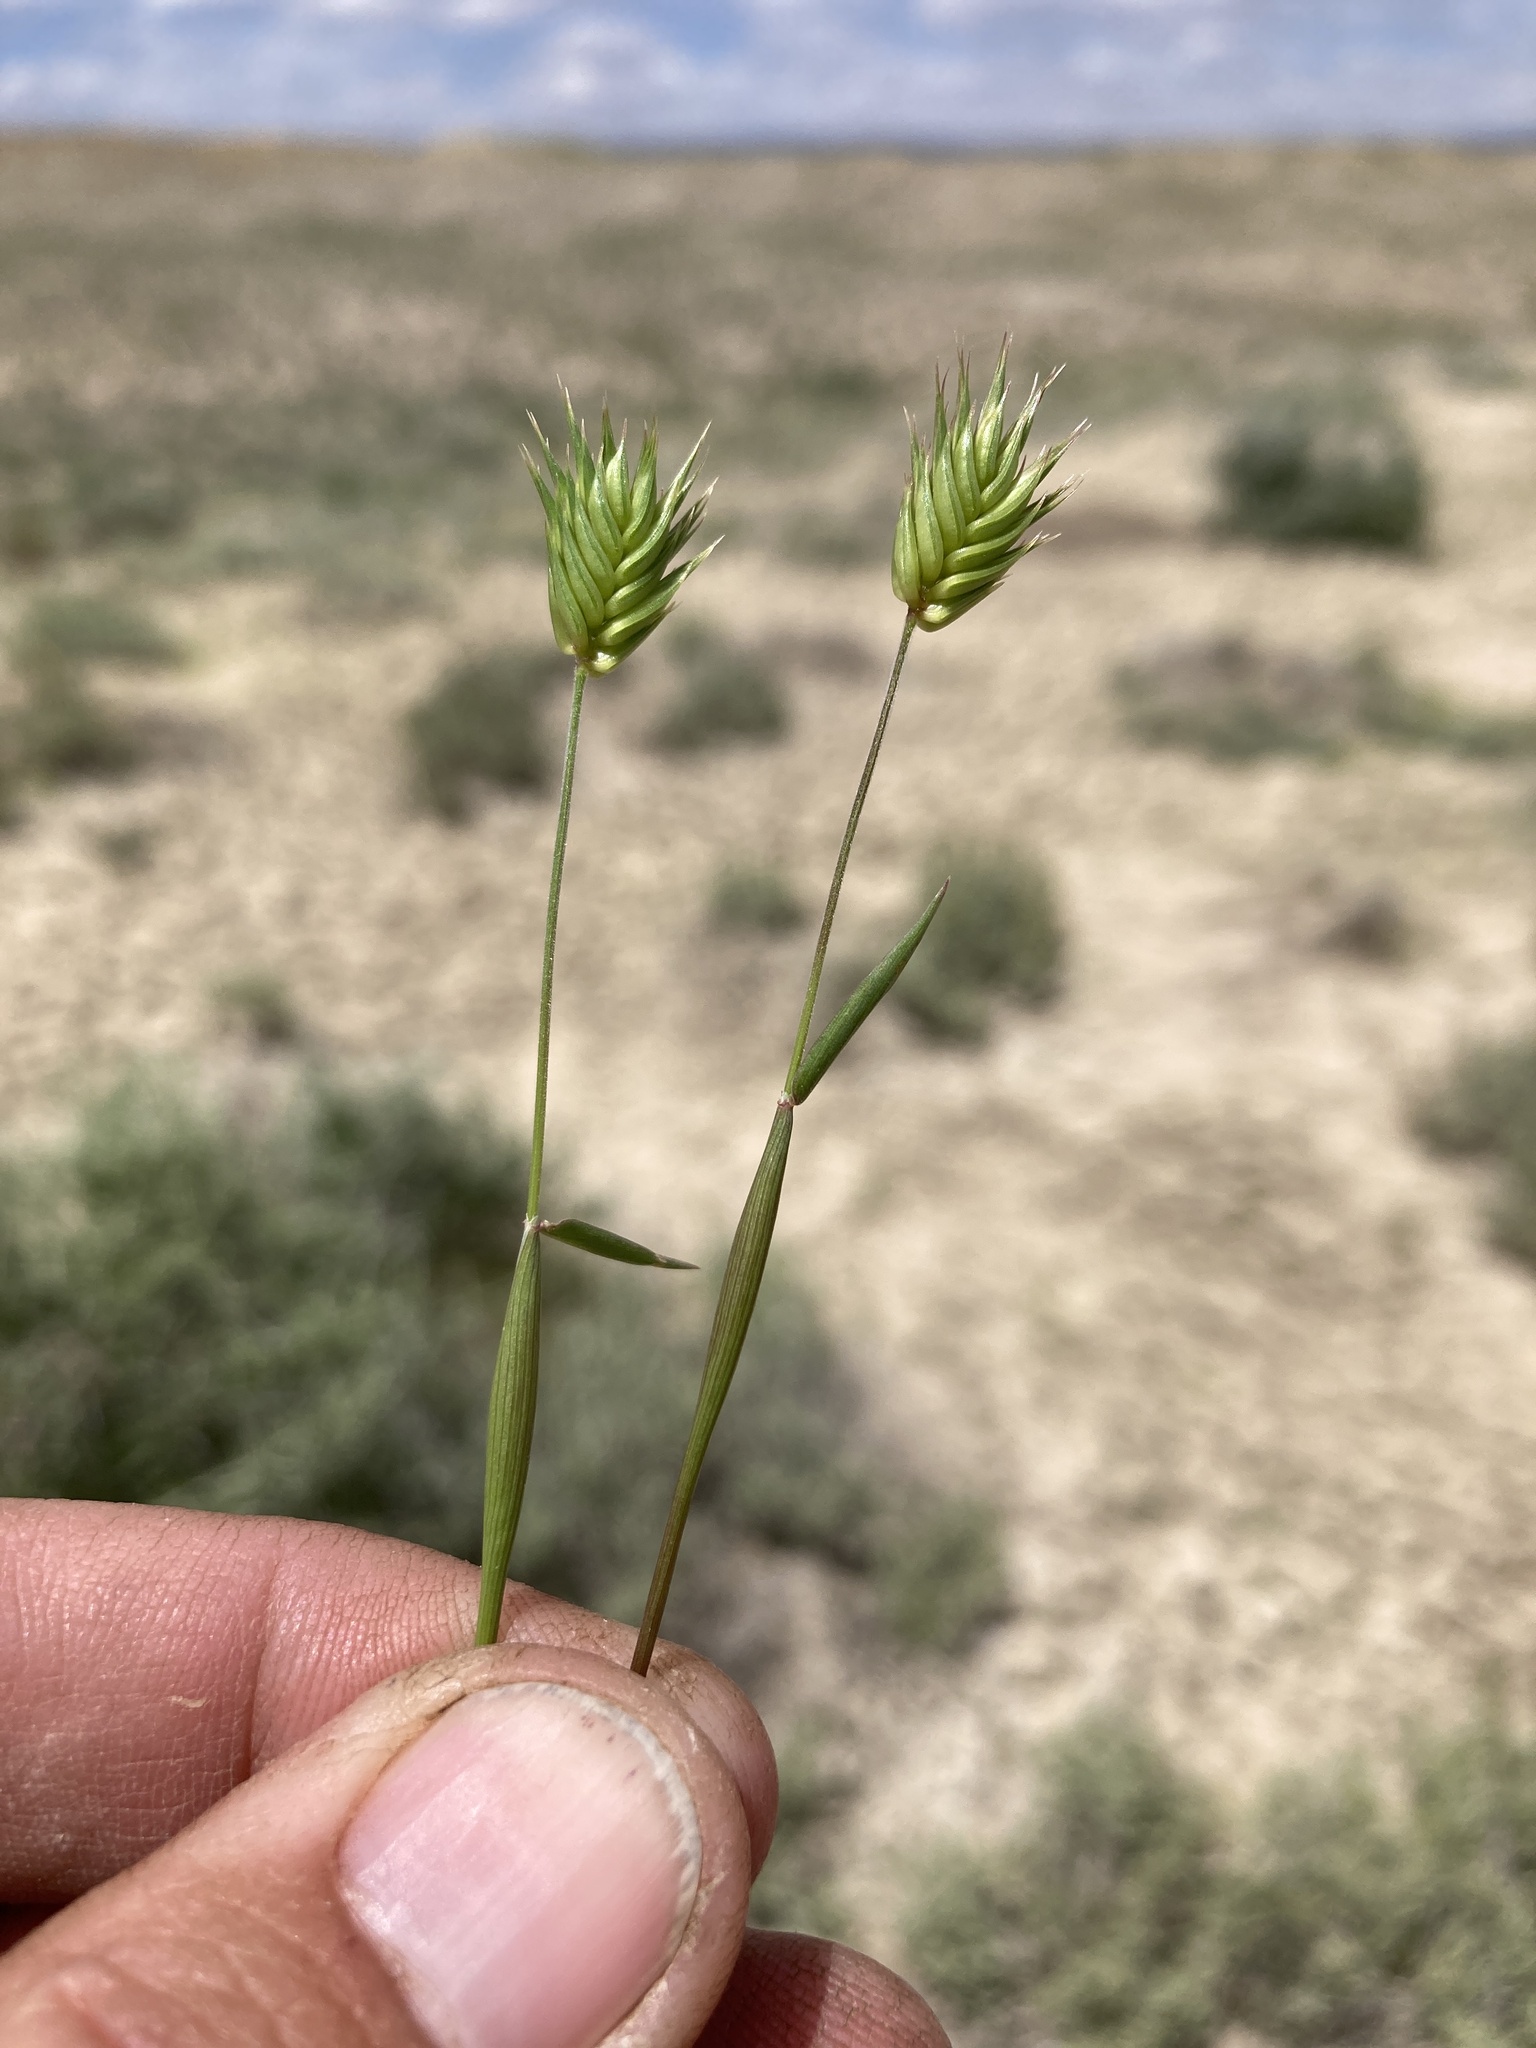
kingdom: Plantae
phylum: Tracheophyta
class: Liliopsida
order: Poales
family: Poaceae
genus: Eremopyrum
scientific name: Eremopyrum triticeum
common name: Annual wheatgrass
